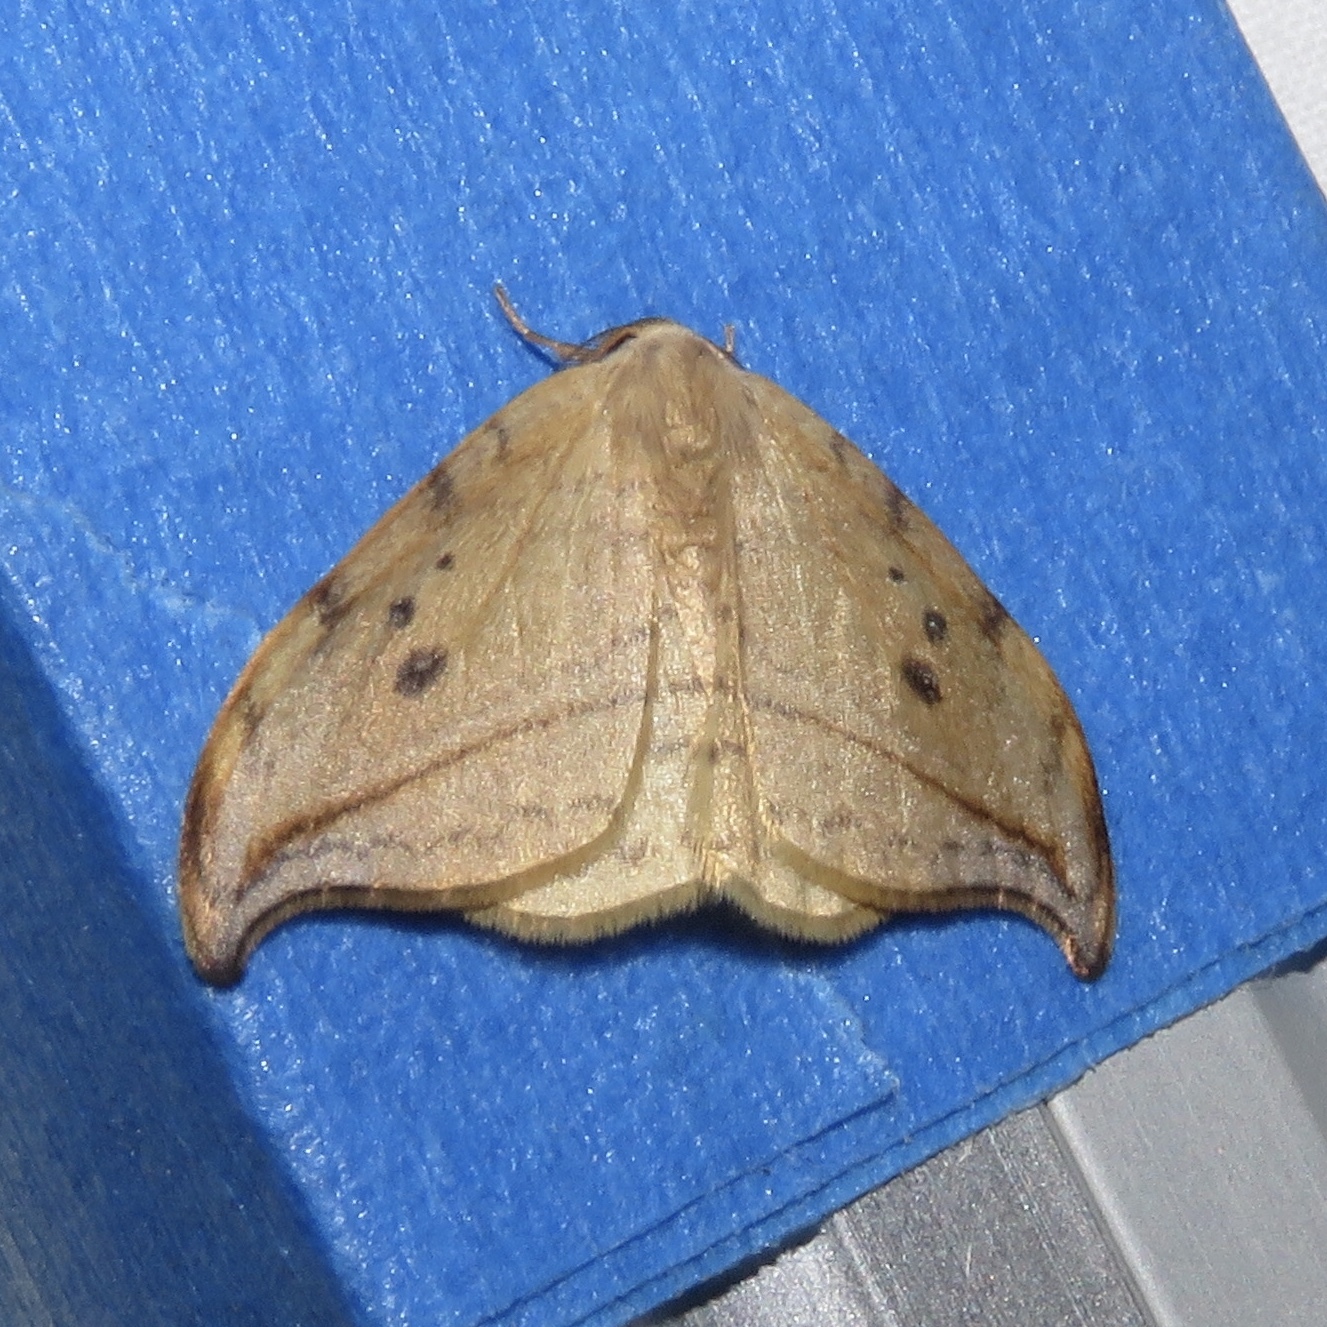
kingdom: Animalia
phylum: Arthropoda
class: Insecta
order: Lepidoptera
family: Drepanidae
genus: Drepana
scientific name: Drepana arcuata
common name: Arched hooktip moth
